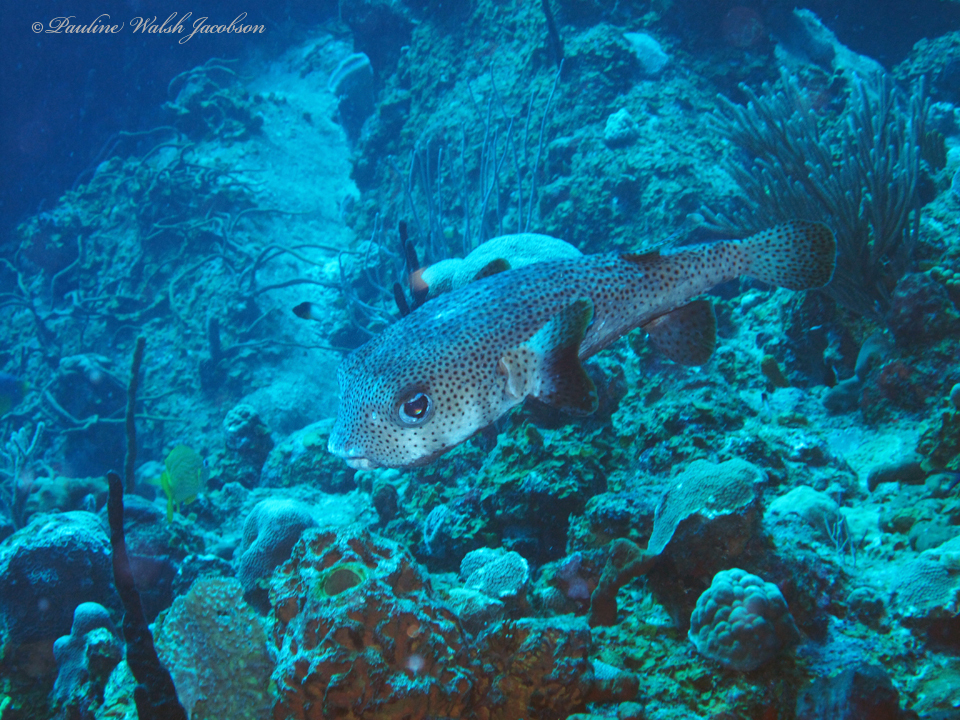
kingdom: Animalia
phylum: Chordata
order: Tetraodontiformes
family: Diodontidae
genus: Diodon
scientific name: Diodon hystrix
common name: Giant porcupinefish
